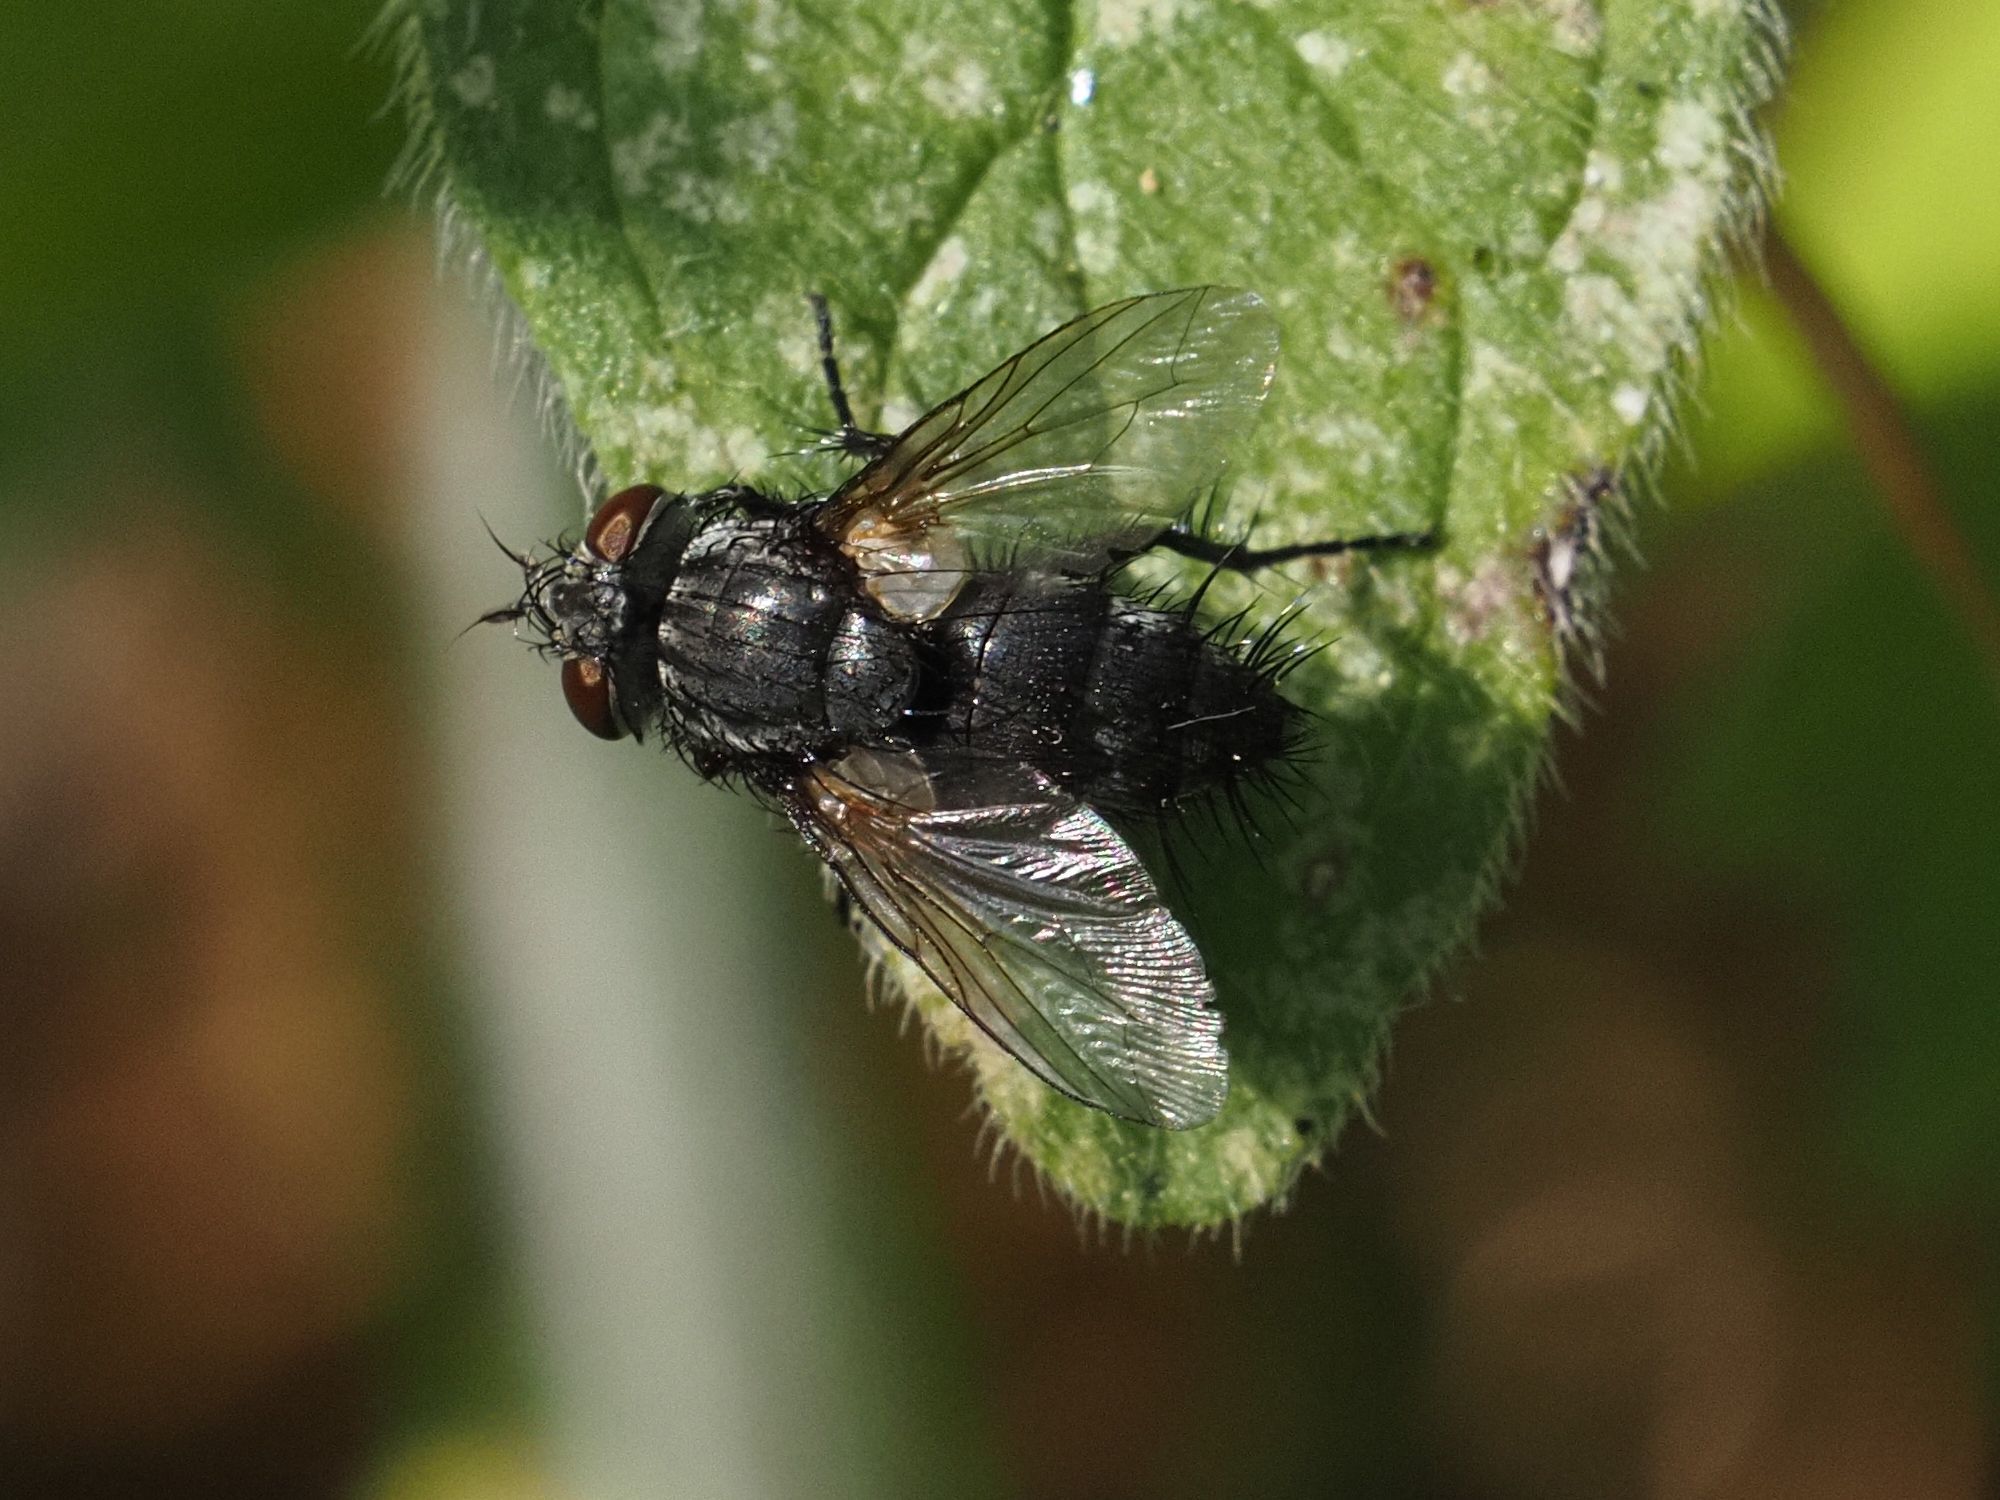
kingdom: Animalia
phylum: Arthropoda
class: Insecta
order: Diptera
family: Tachinidae
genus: Voria
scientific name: Voria ruralis
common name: Parasitic fly
